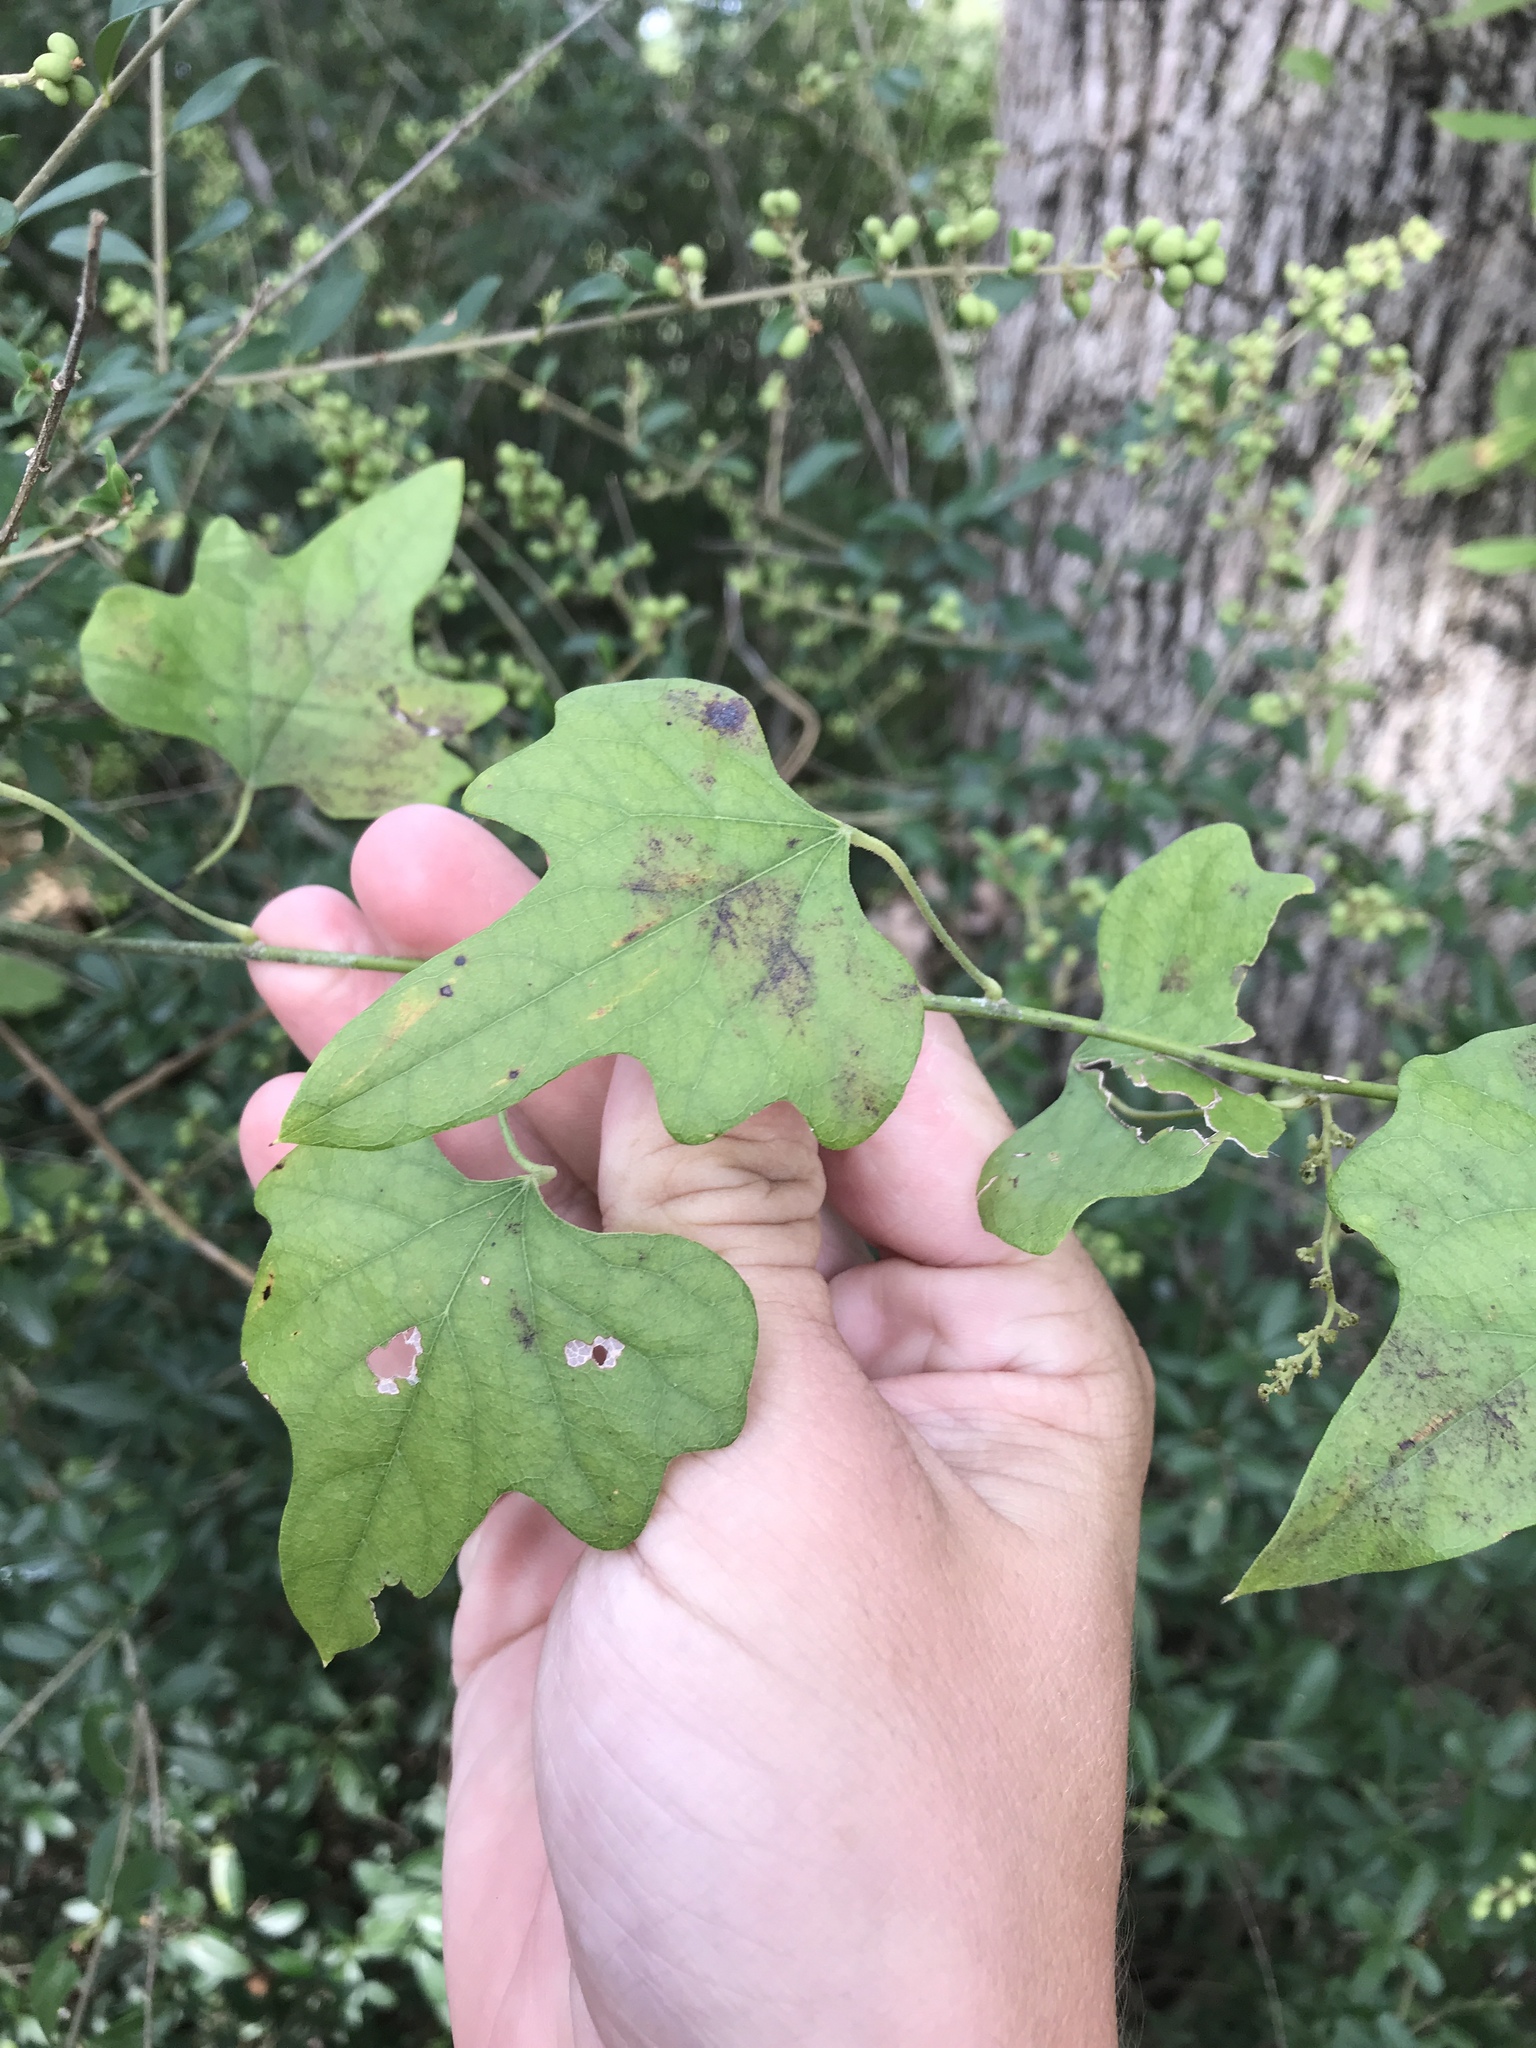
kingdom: Plantae
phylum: Tracheophyta
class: Magnoliopsida
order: Ranunculales
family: Menispermaceae
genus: Cocculus
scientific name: Cocculus carolinus
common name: Carolina moonseed
